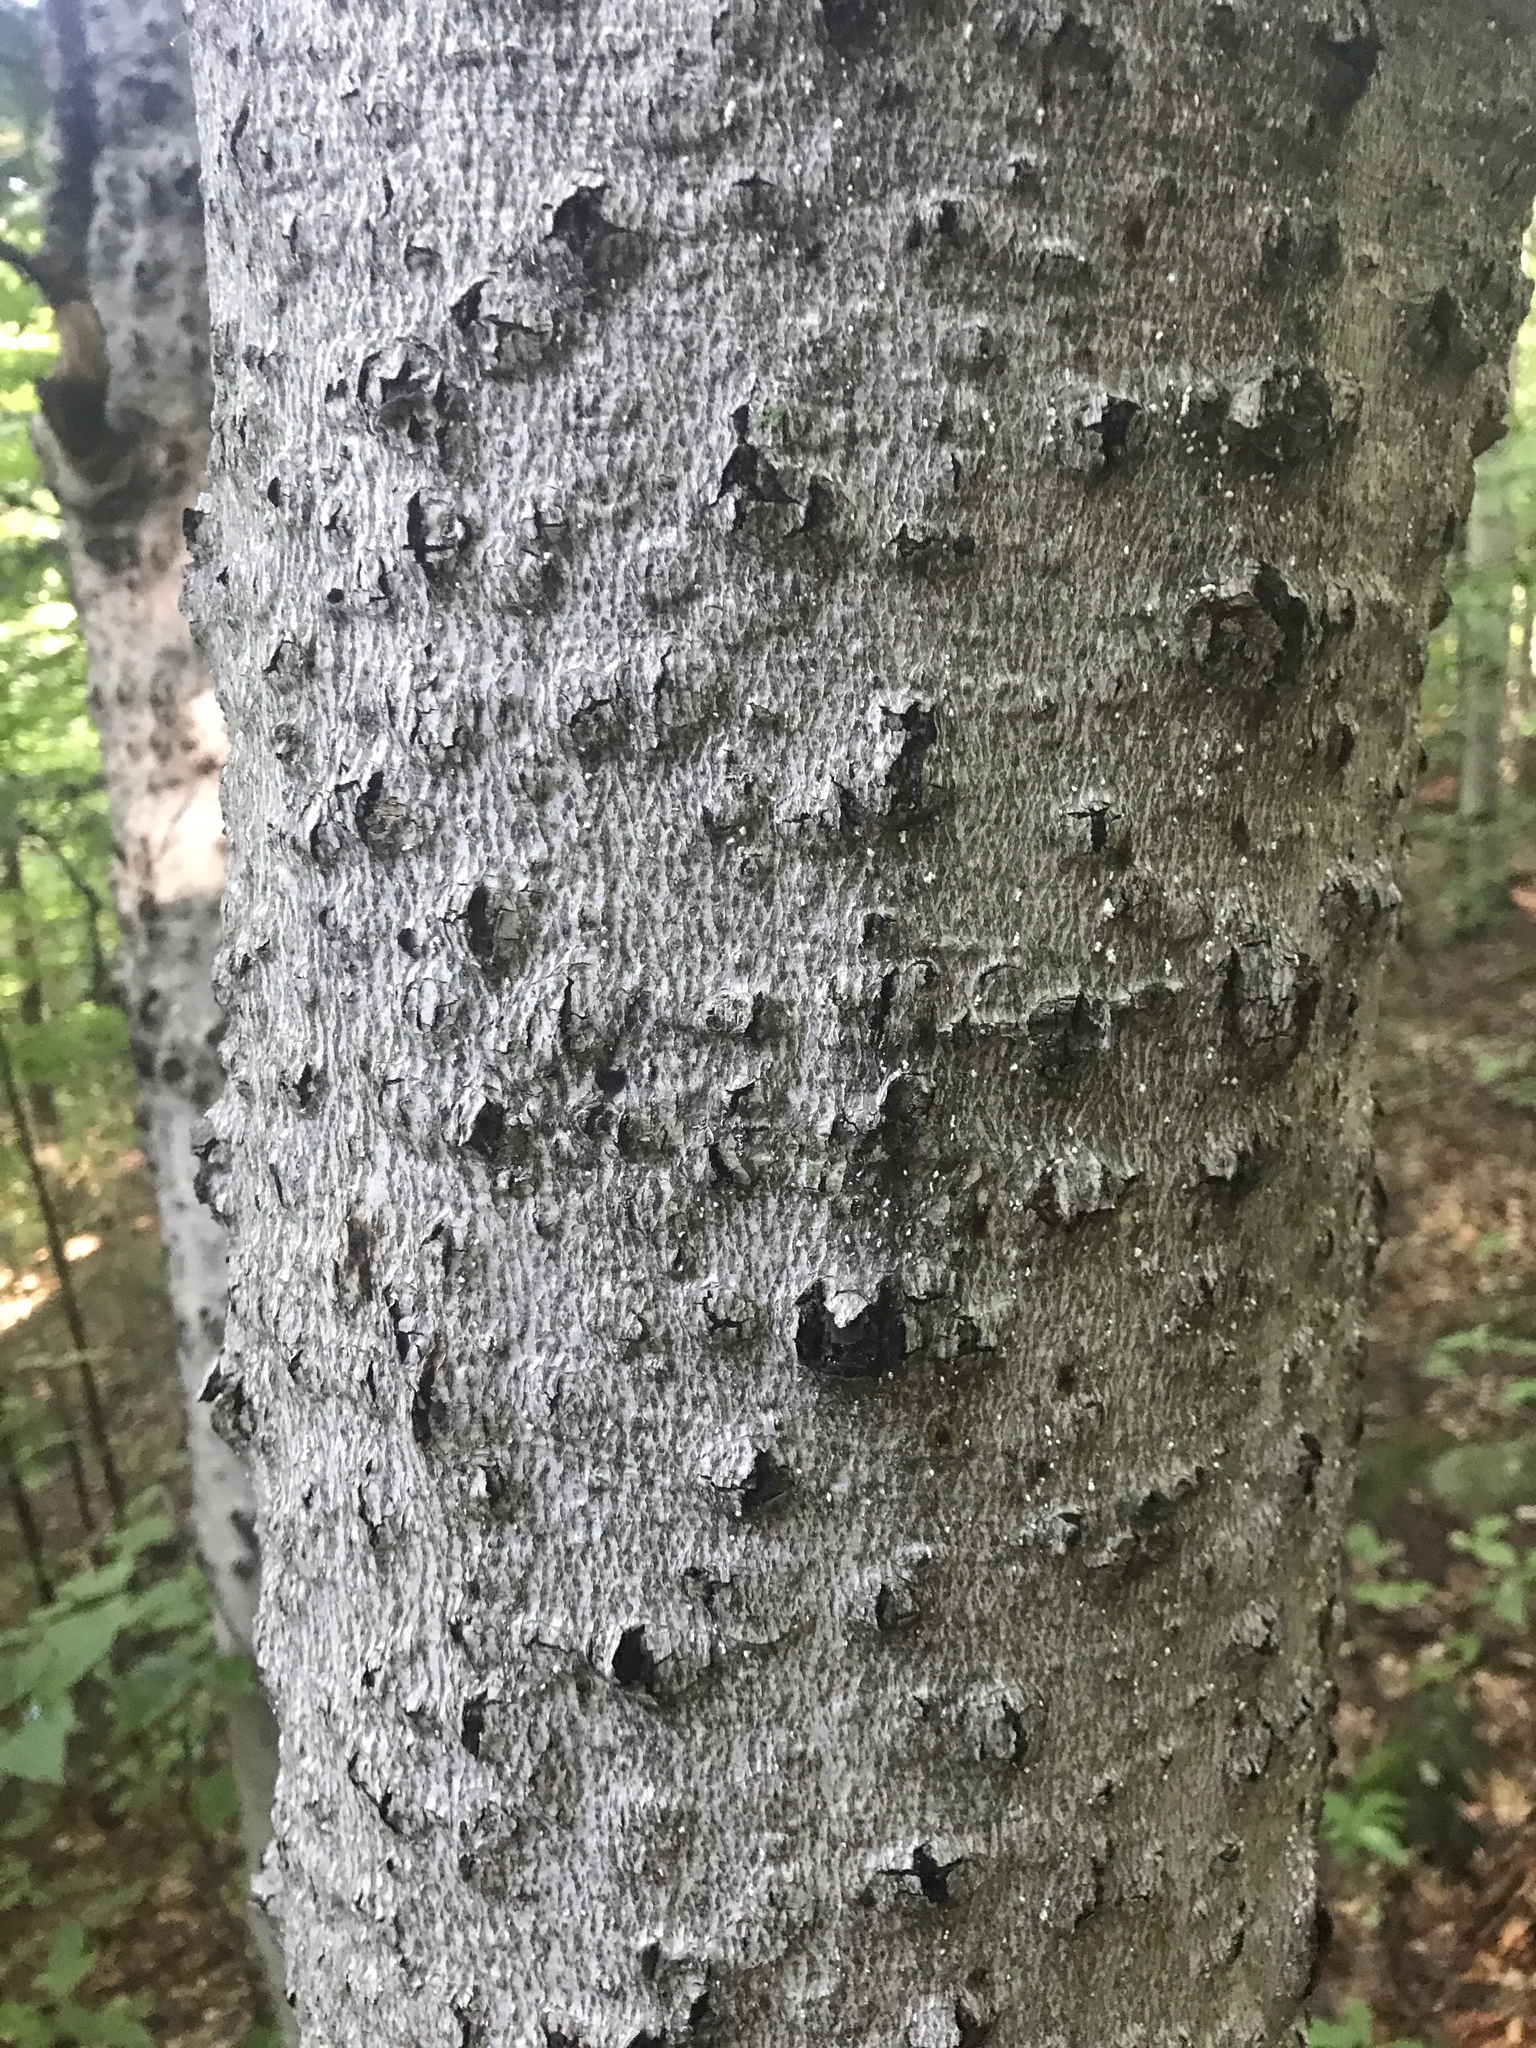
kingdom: Animalia
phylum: Arthropoda
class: Insecta
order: Hemiptera
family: Eriococcidae
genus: Cryptococcus
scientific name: Cryptococcus fagisuga
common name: Beech scale
